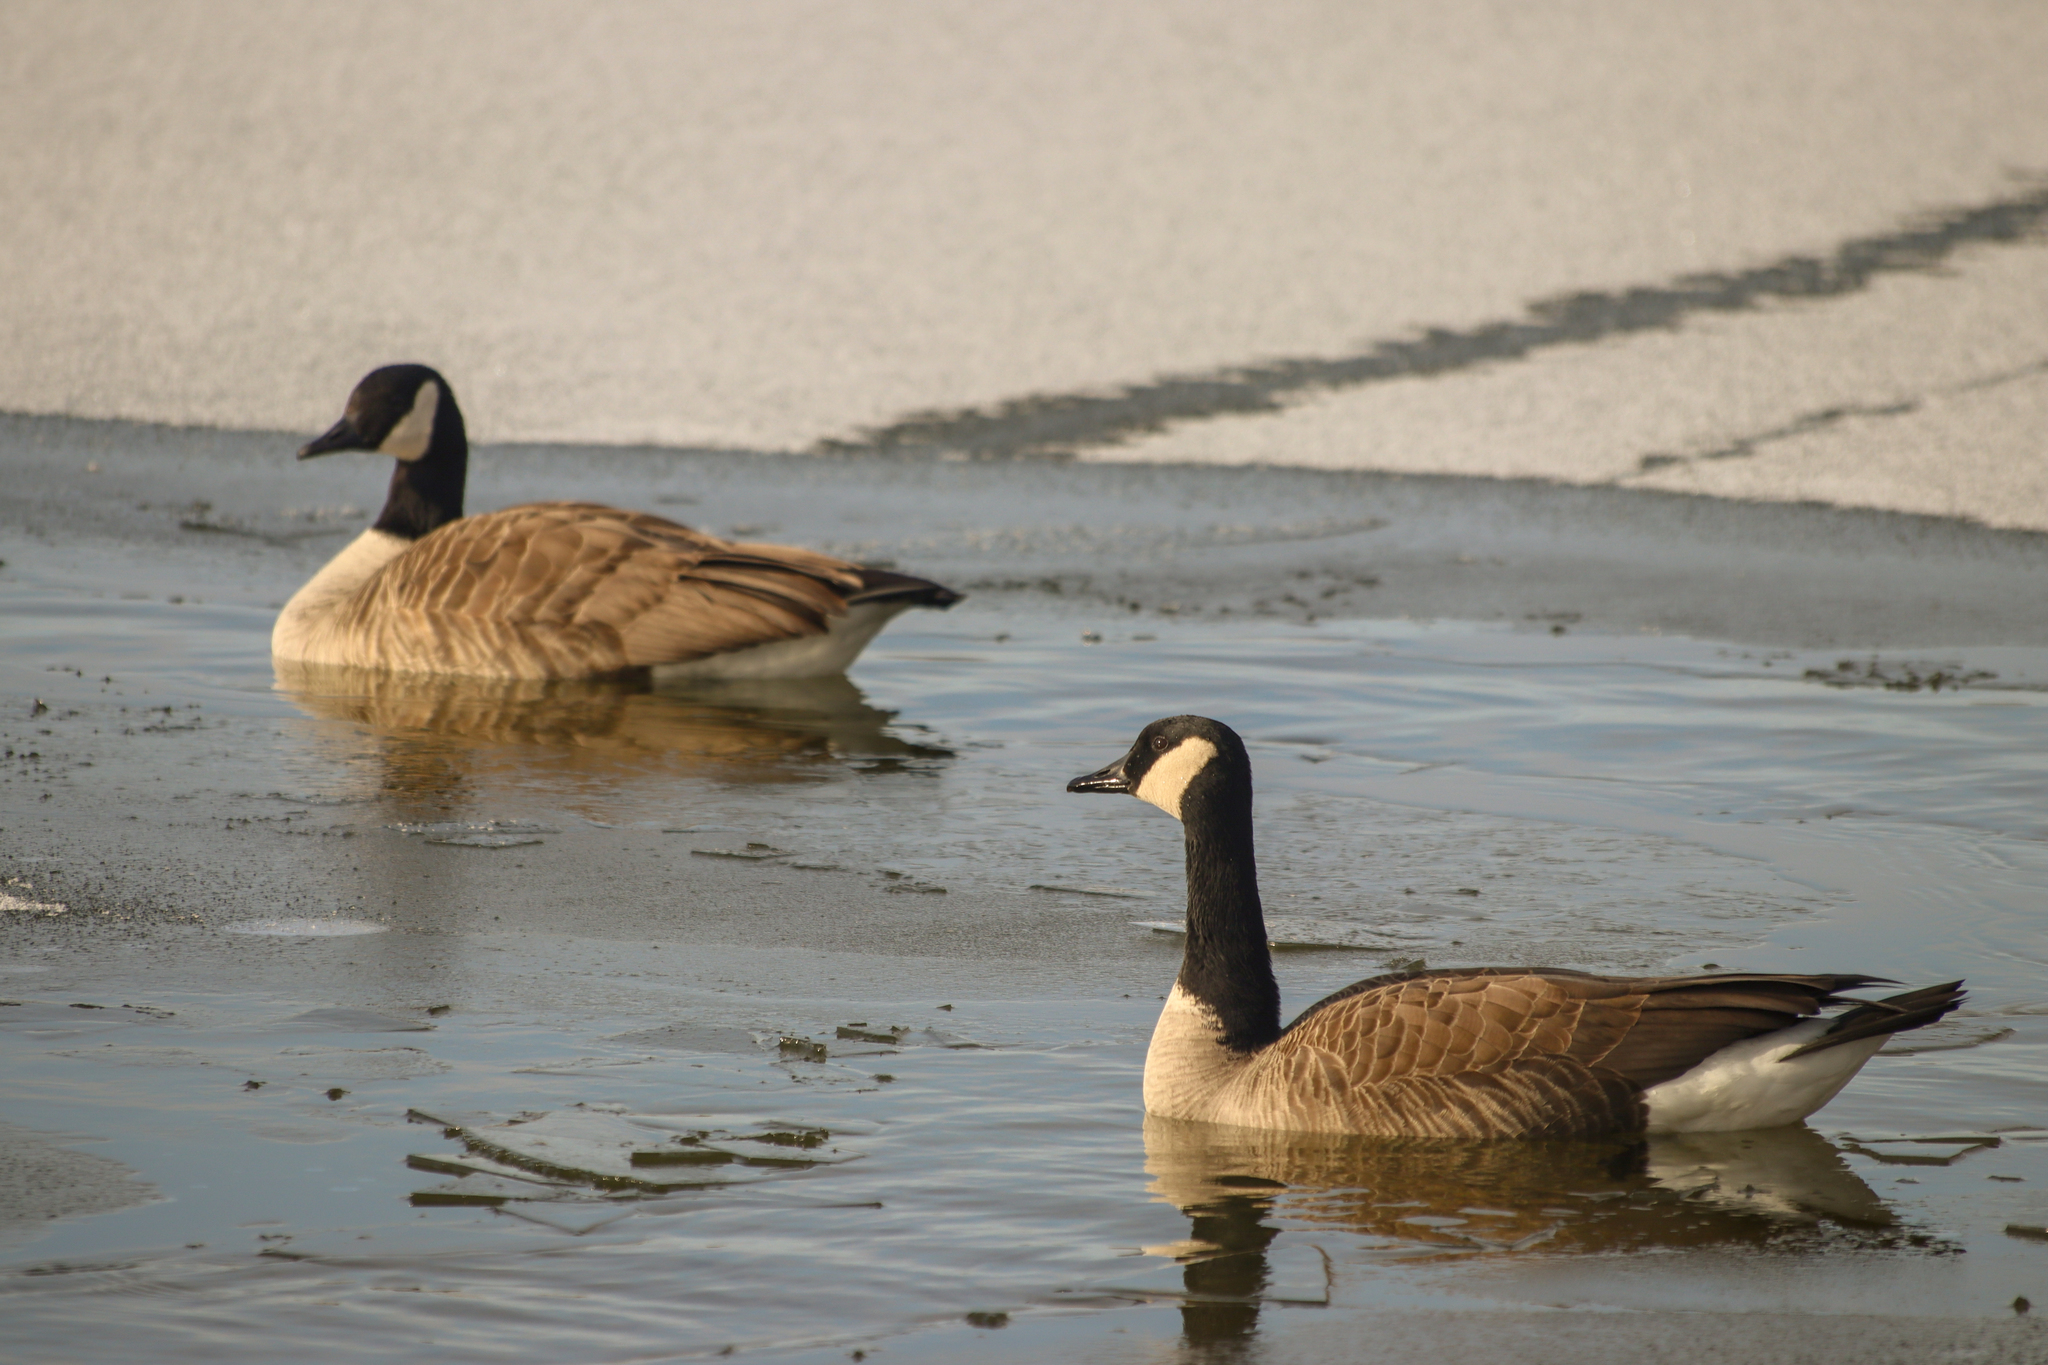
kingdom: Animalia
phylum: Chordata
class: Aves
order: Anseriformes
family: Anatidae
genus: Branta
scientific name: Branta canadensis
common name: Canada goose
